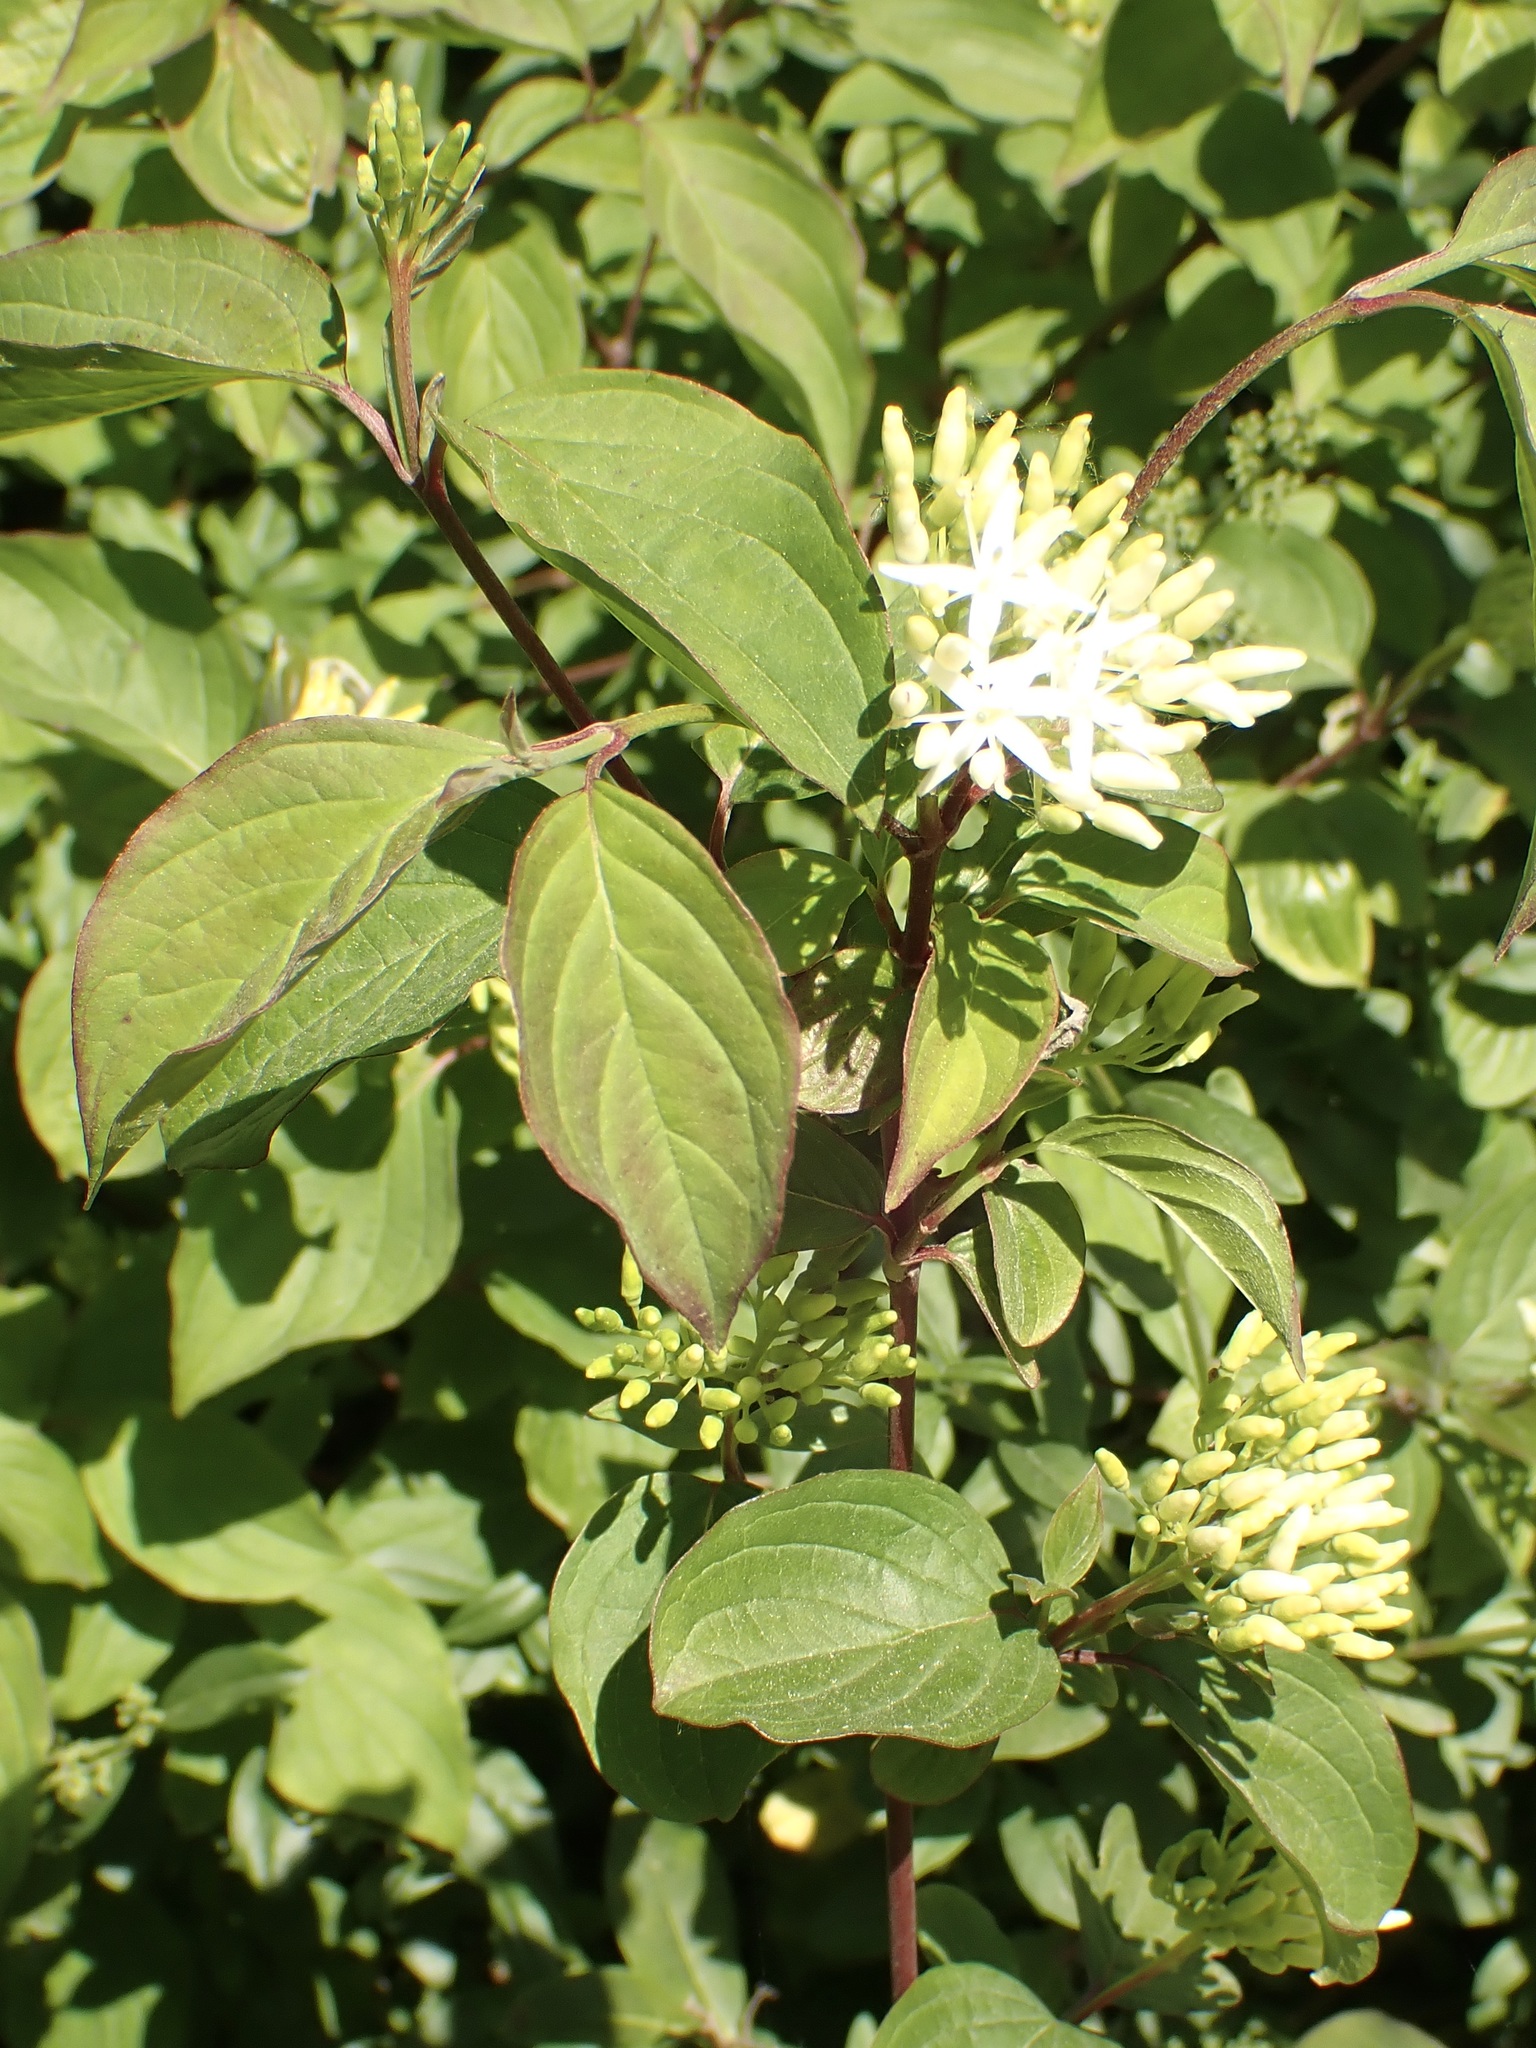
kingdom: Plantae
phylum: Tracheophyta
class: Magnoliopsida
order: Cornales
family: Cornaceae
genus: Cornus
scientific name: Cornus sanguinea
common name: Dogwood
